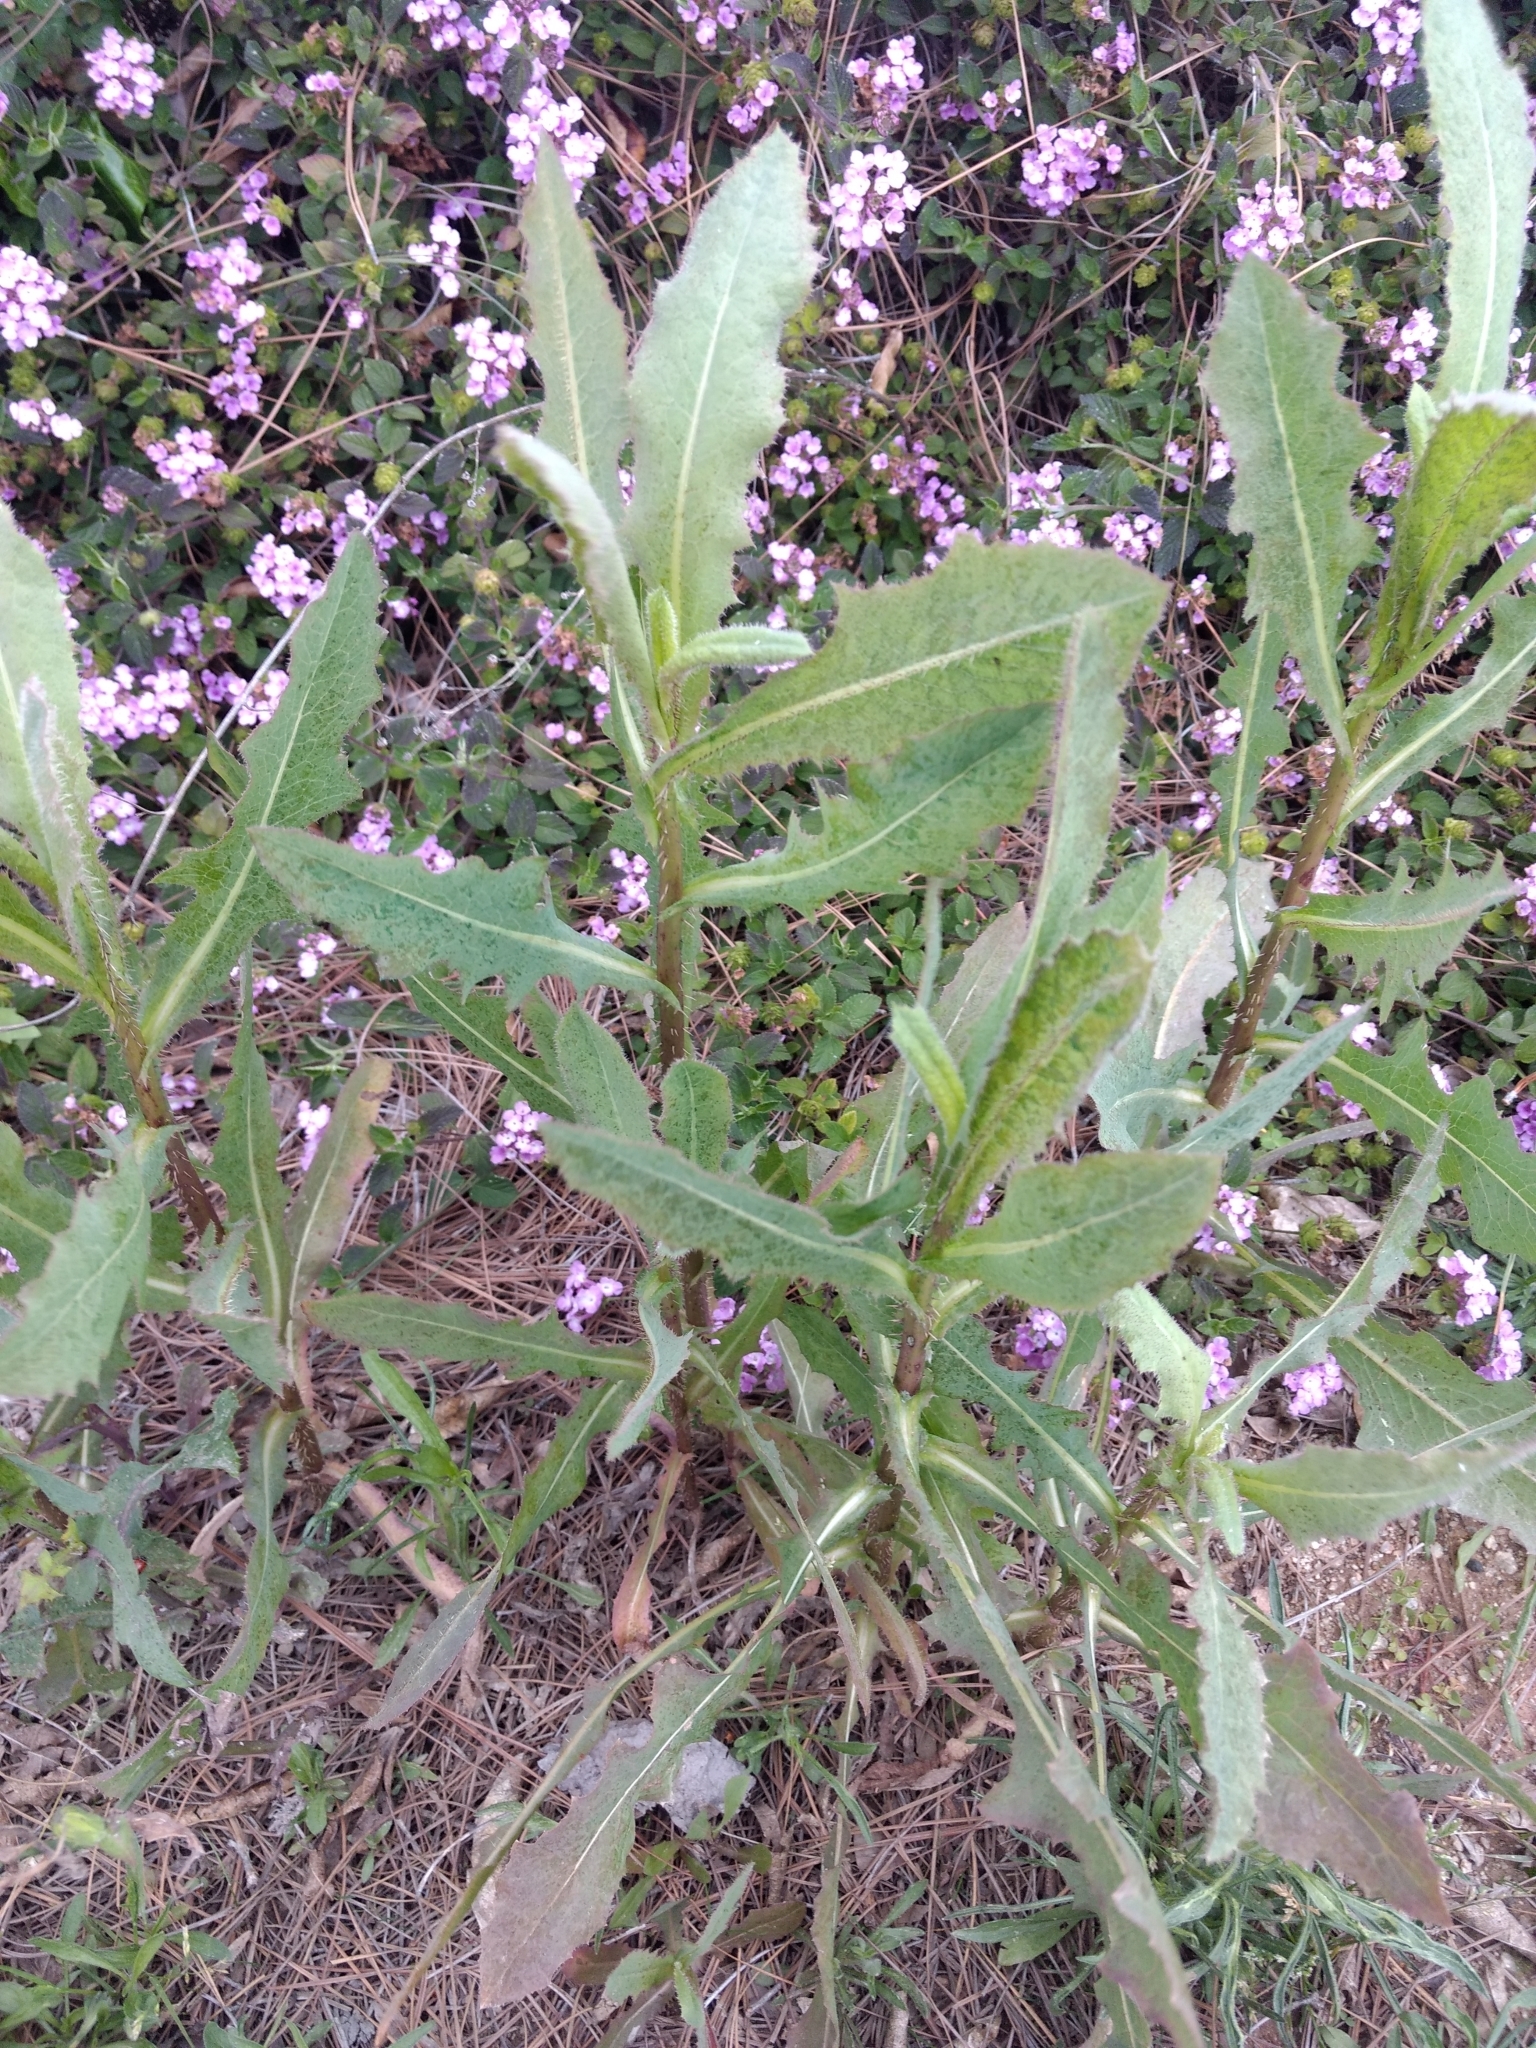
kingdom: Plantae
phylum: Tracheophyta
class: Magnoliopsida
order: Asterales
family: Asteraceae
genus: Lactuca
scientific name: Lactuca serriola
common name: Prickly lettuce
